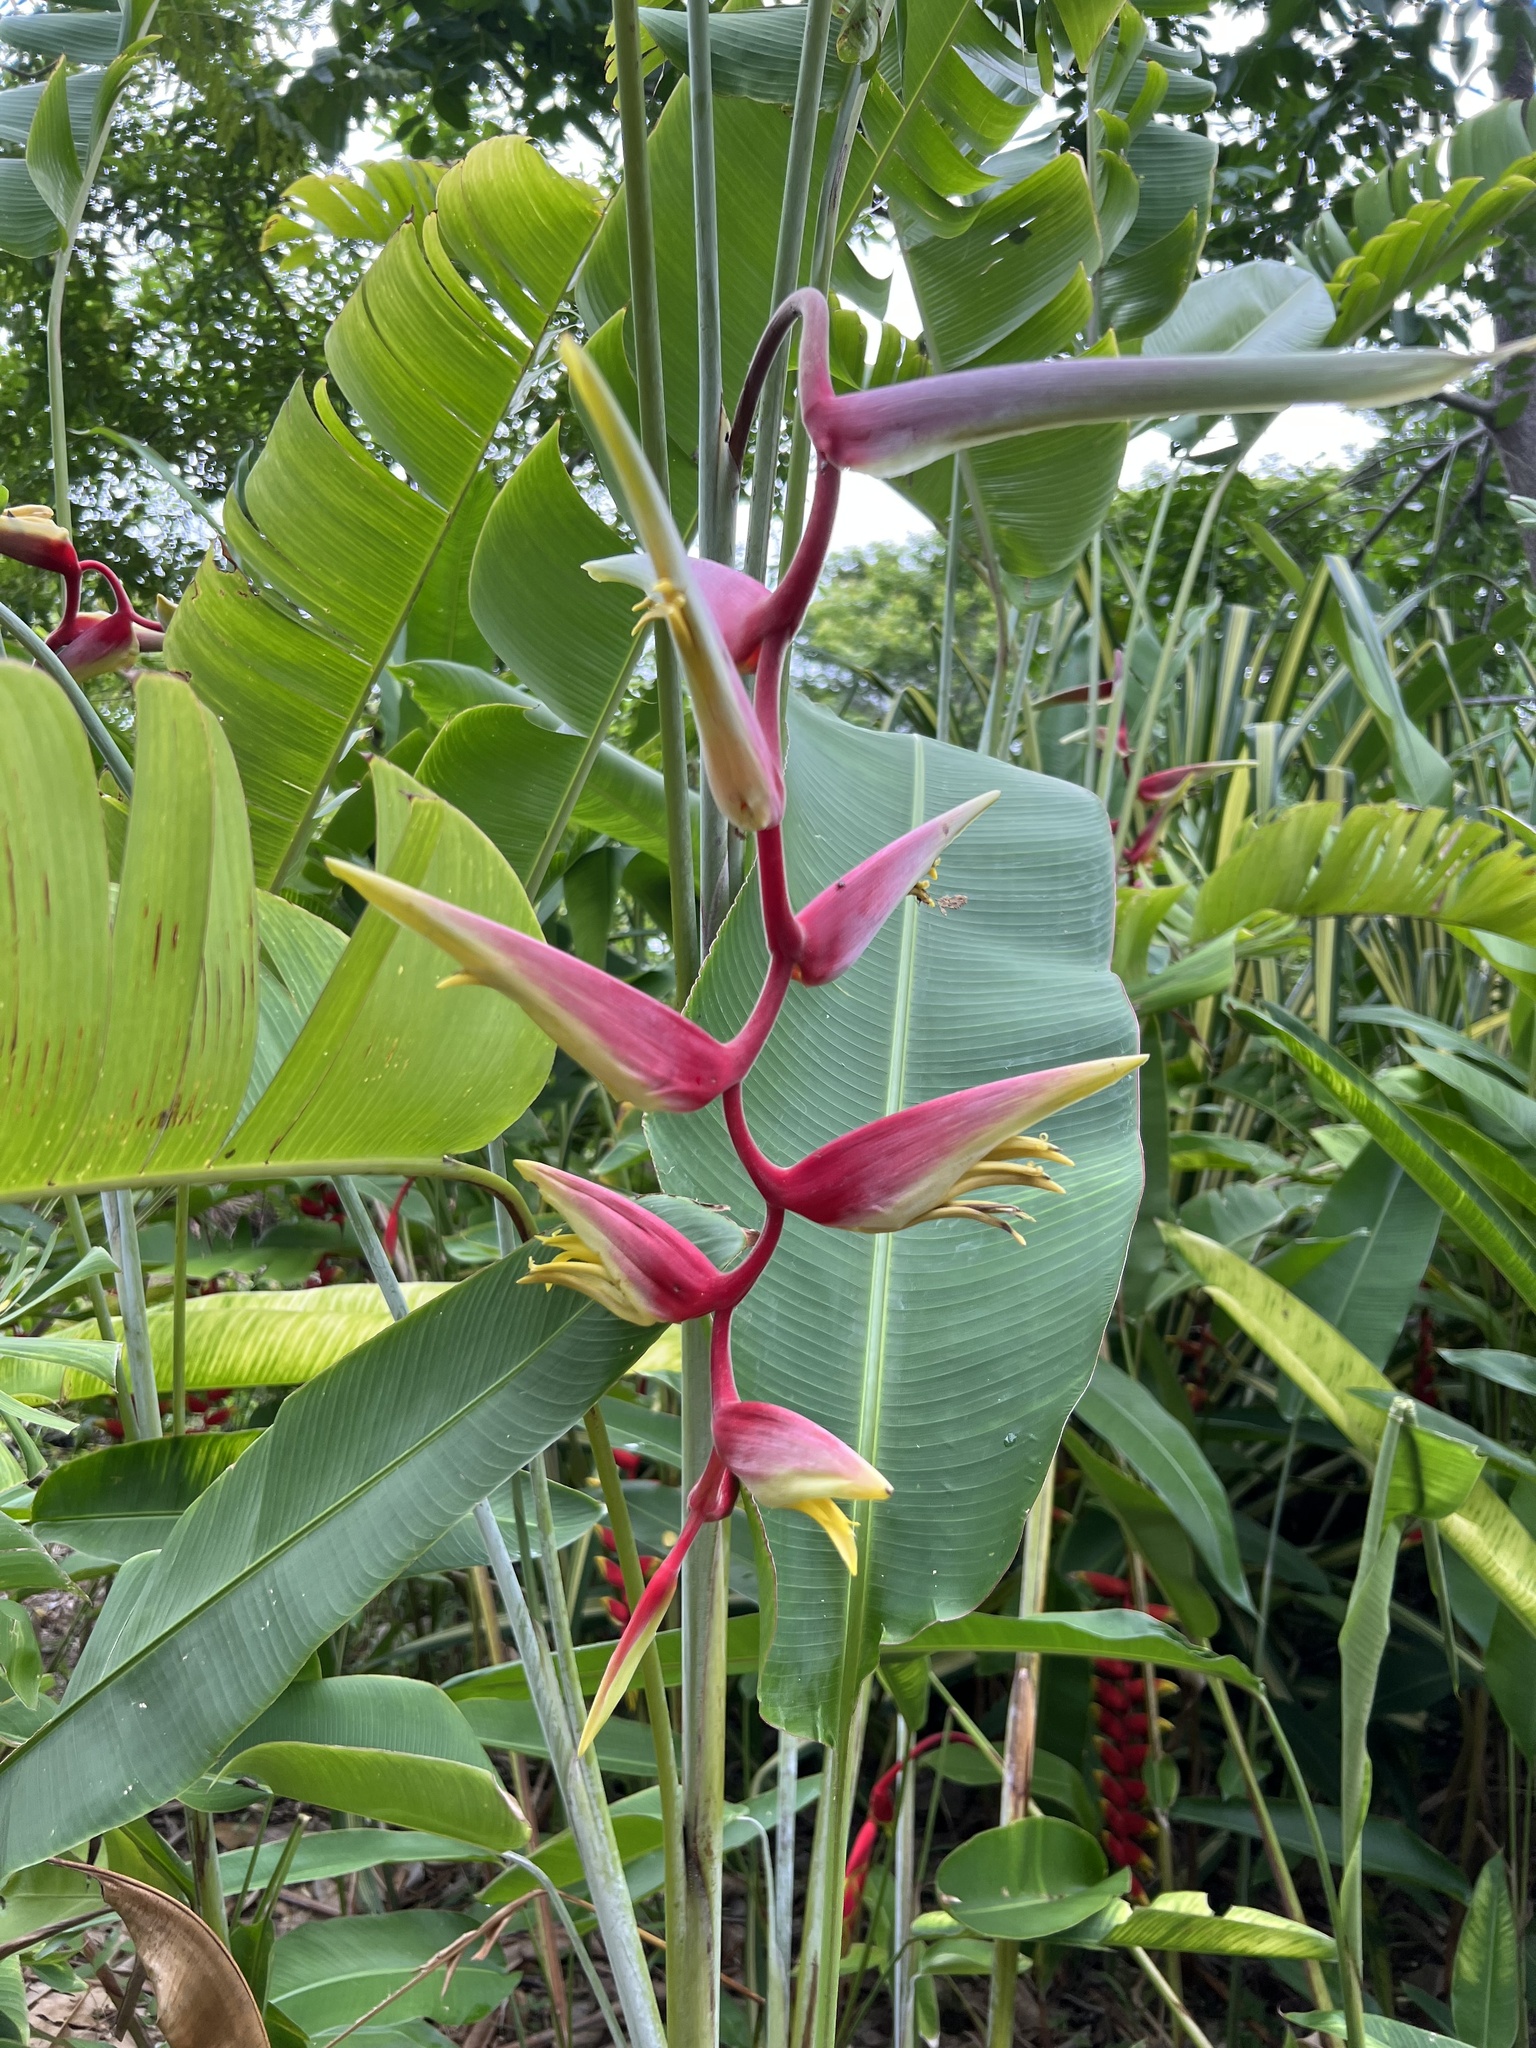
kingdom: Plantae
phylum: Tracheophyta
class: Liliopsida
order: Zingiberales
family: Heliconiaceae
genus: Heliconia
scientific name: Heliconia chartacea
